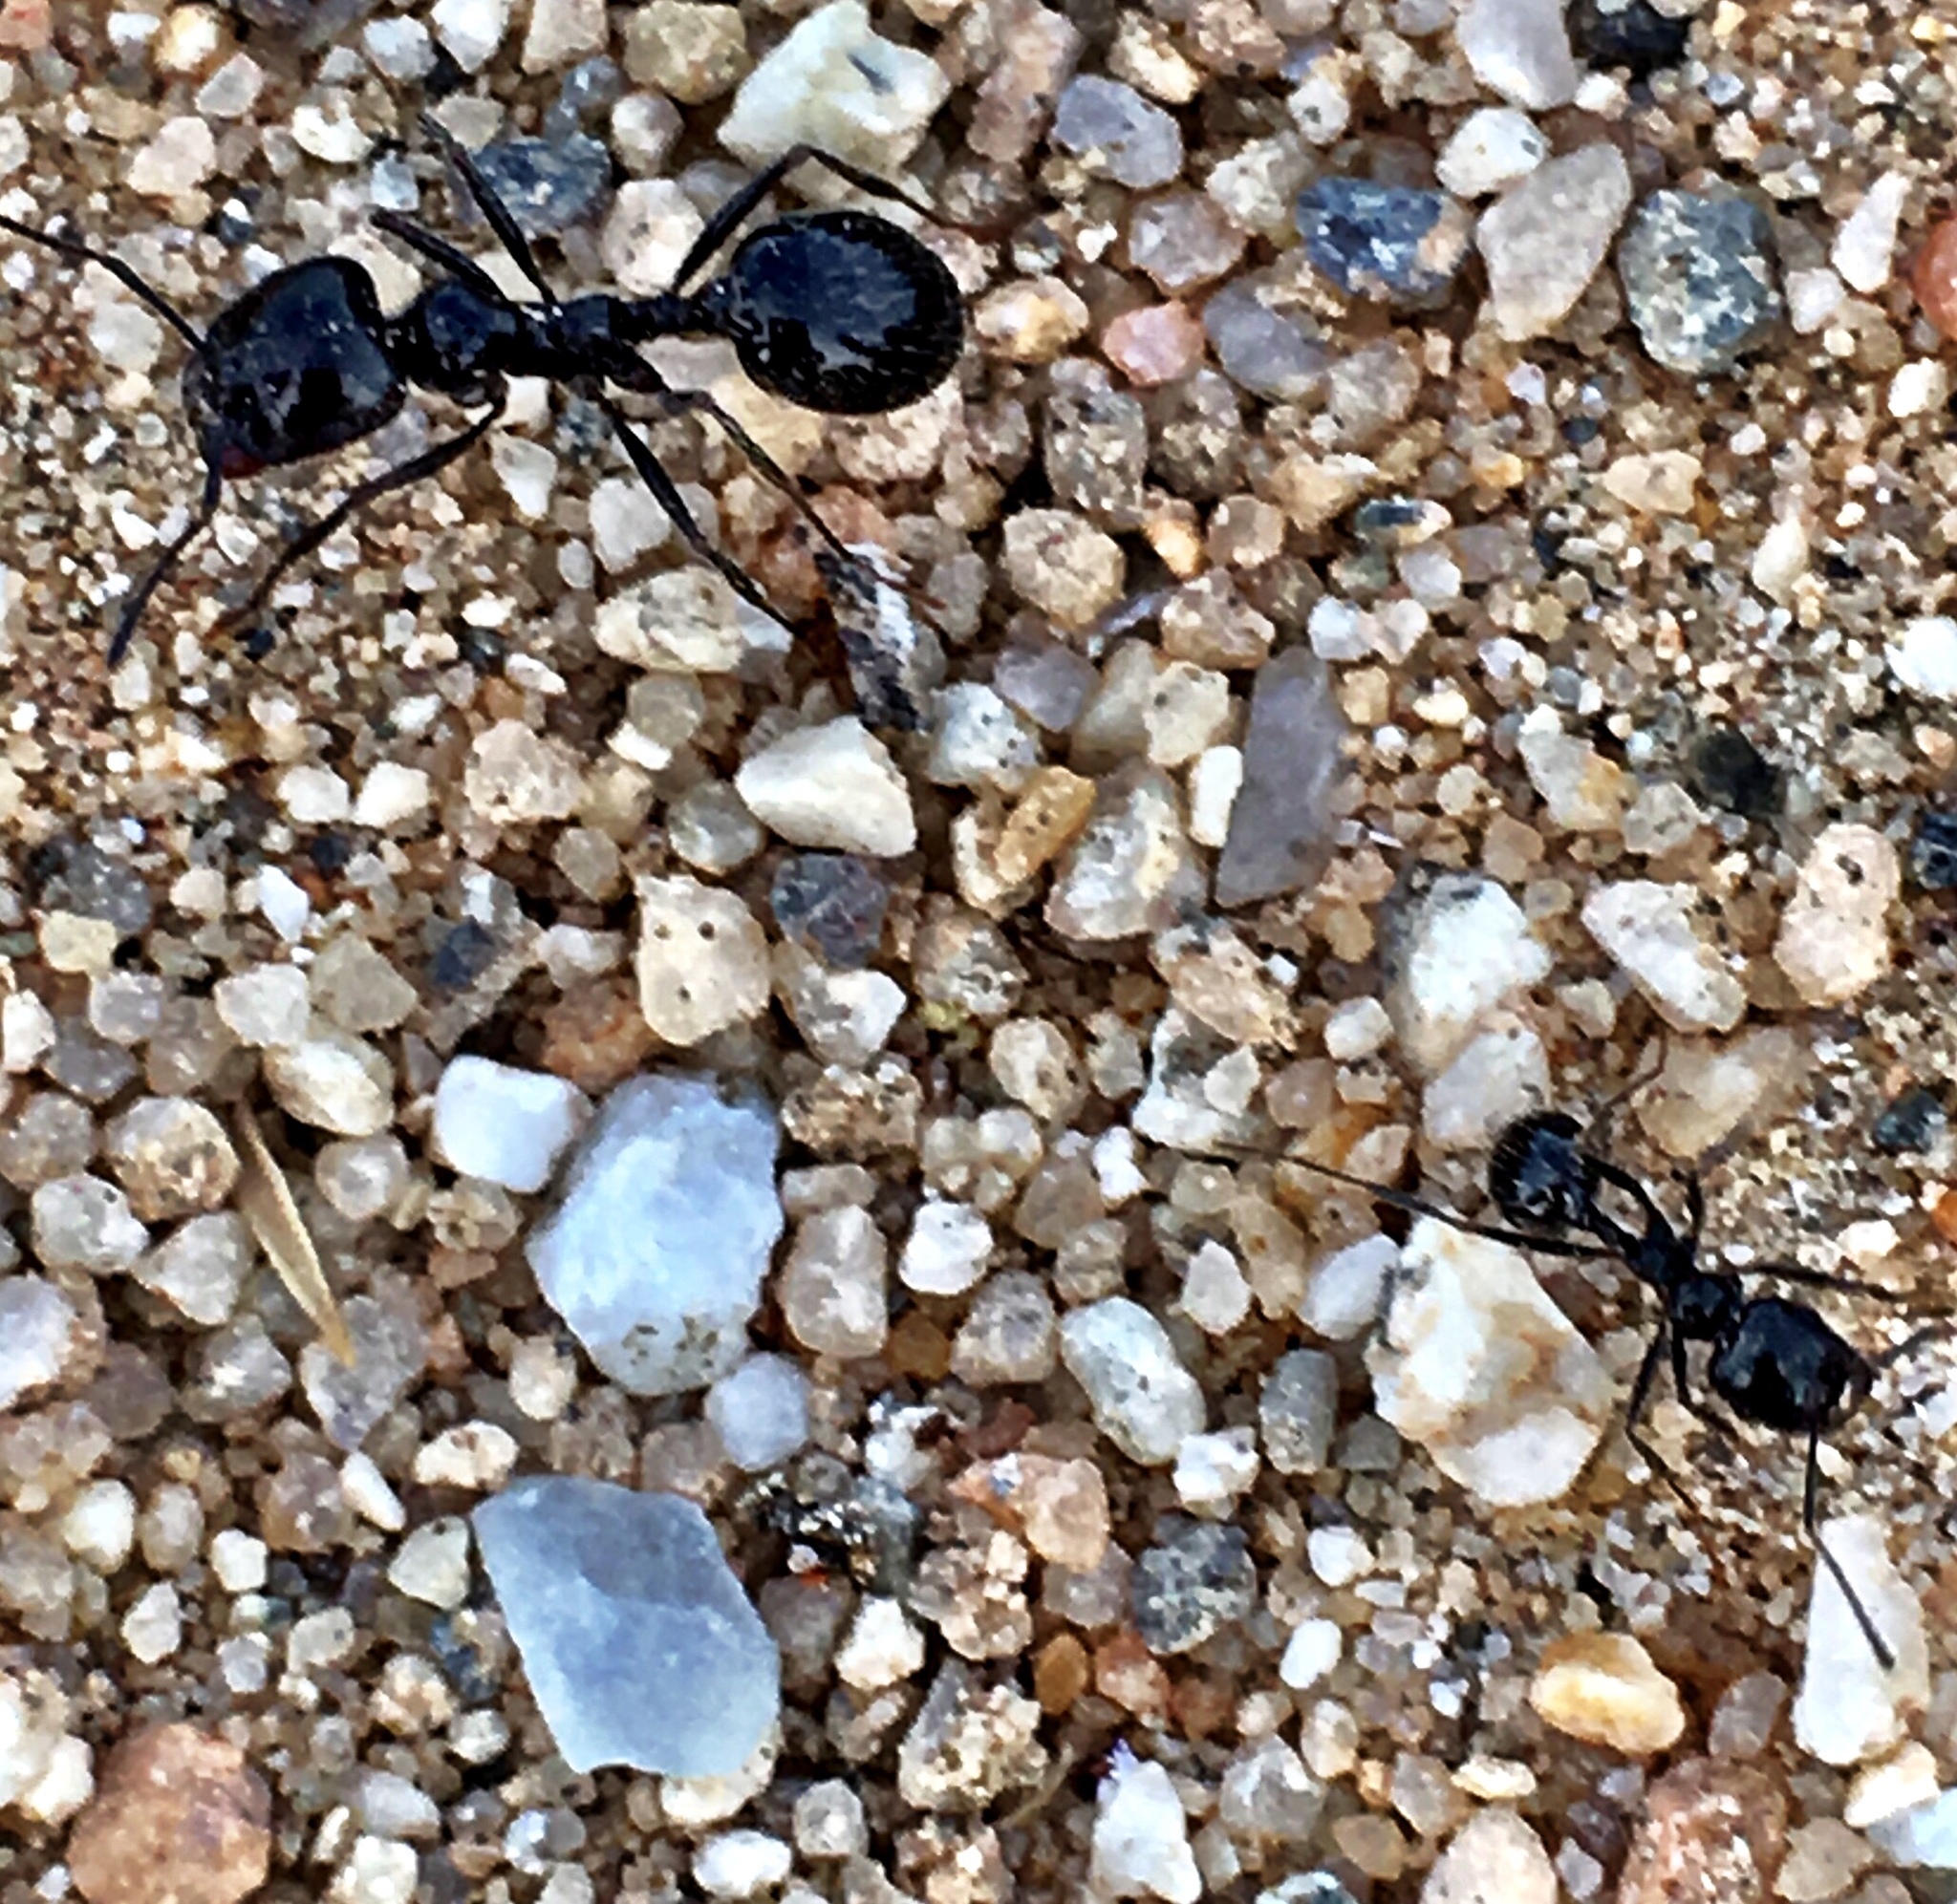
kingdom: Animalia
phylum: Arthropoda
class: Insecta
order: Hymenoptera
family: Formicidae
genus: Messor
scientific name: Messor pergandei
